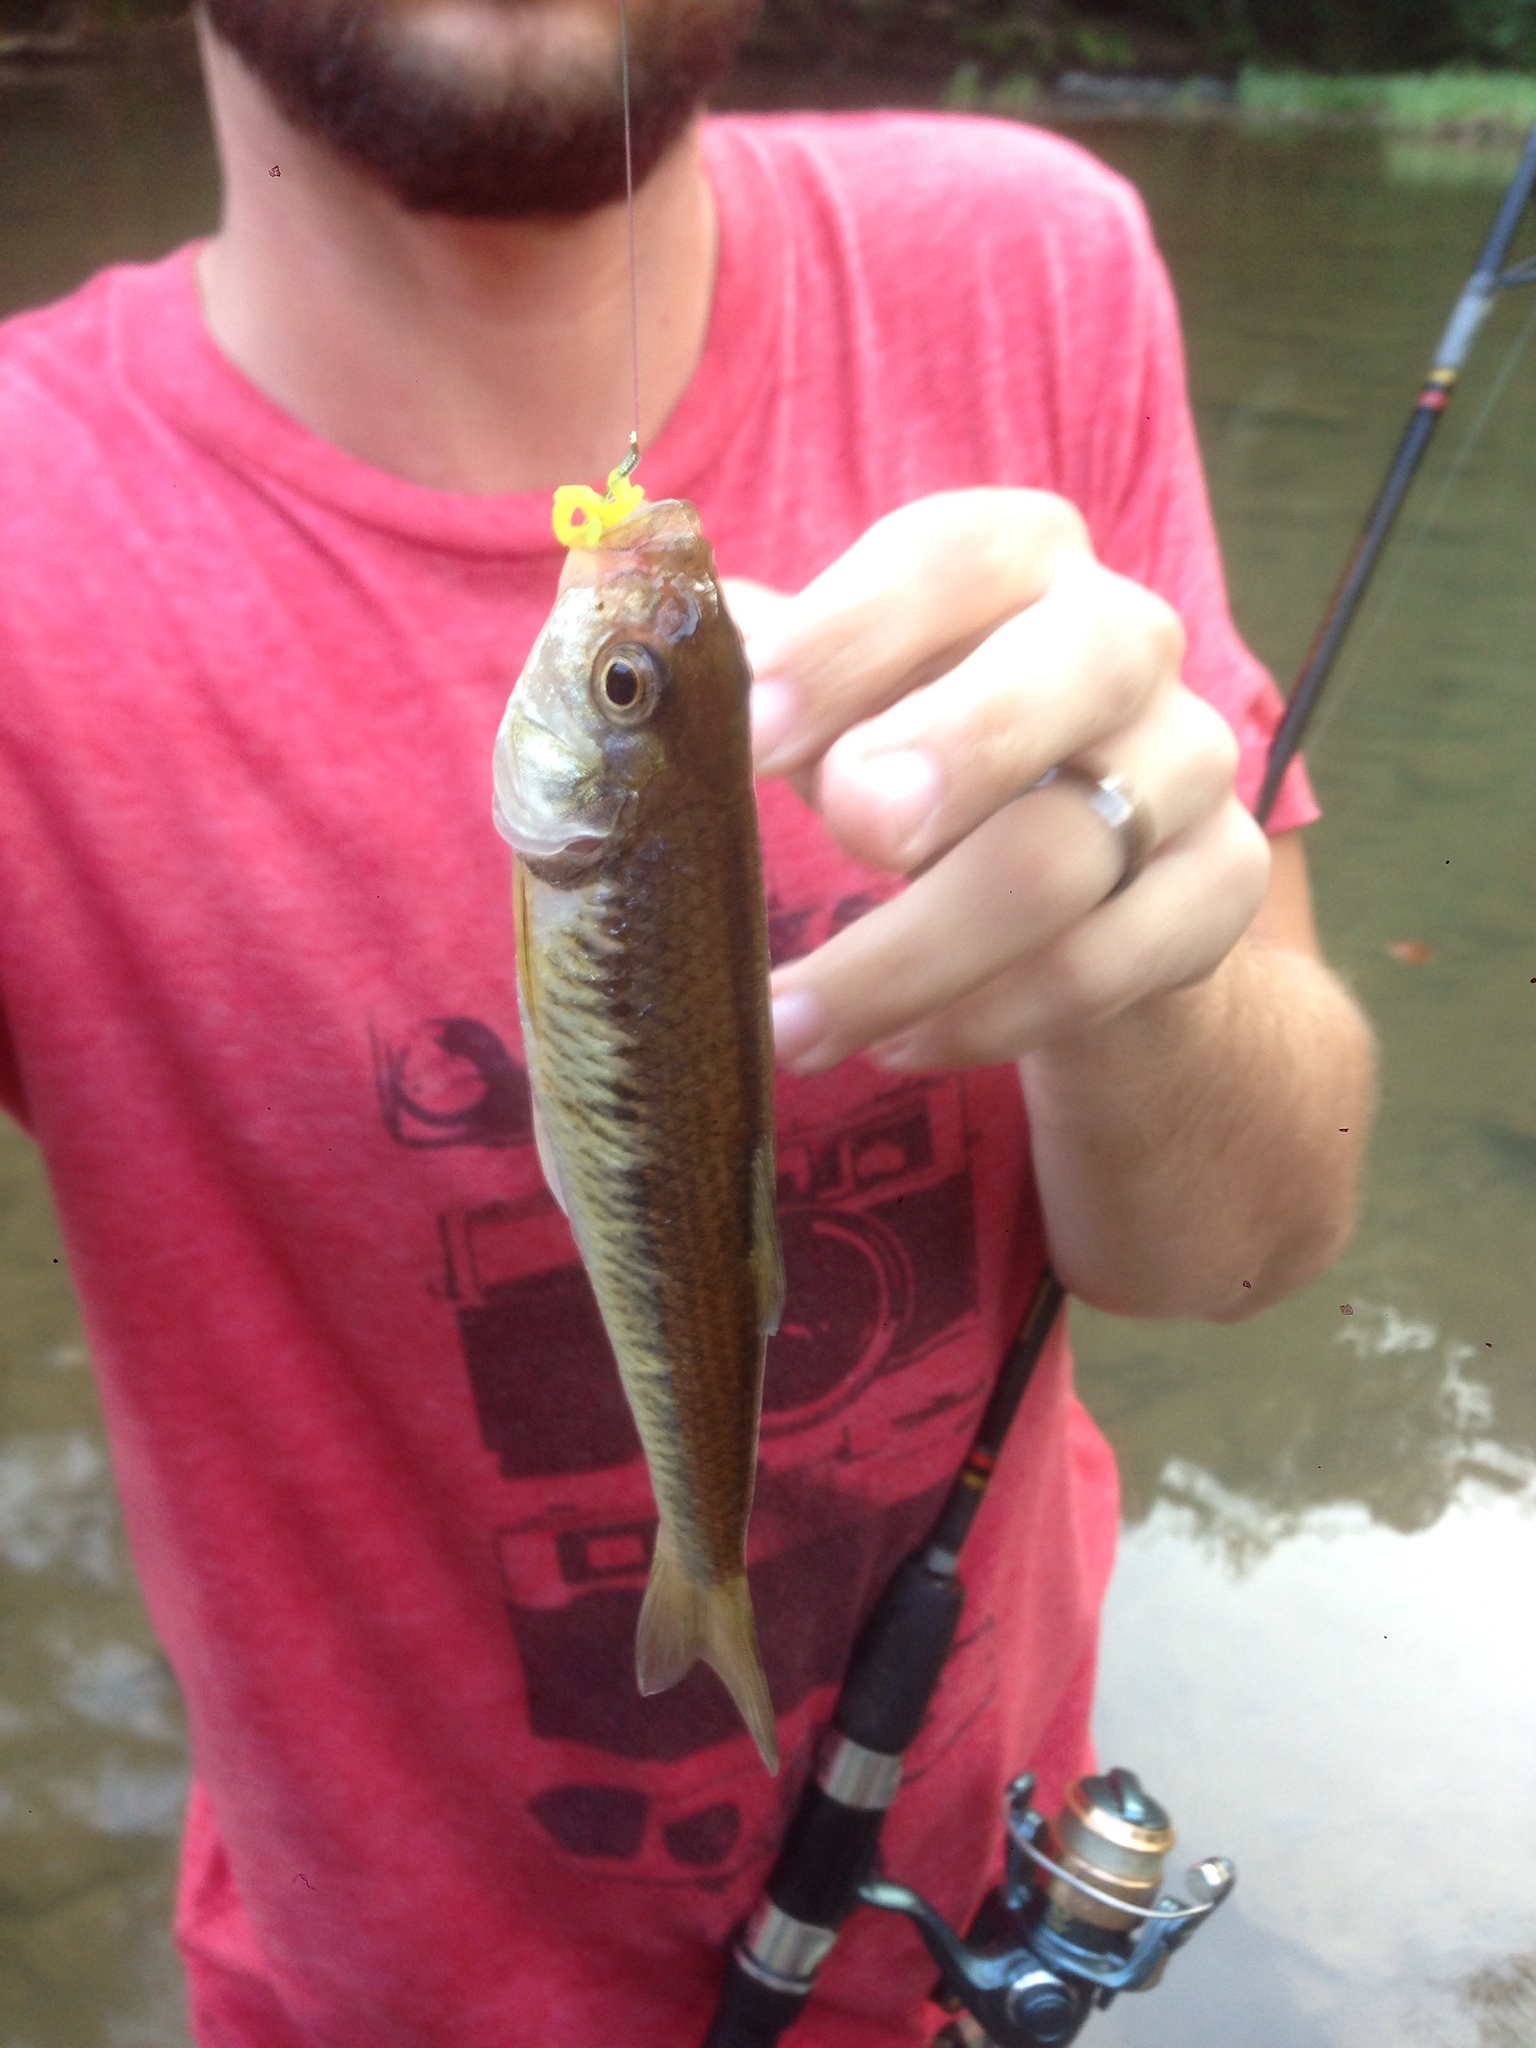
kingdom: Animalia
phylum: Chordata
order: Cypriniformes
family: Cyprinidae
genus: Luxilus
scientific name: Luxilus chrysocephalus
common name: Striped shiner
